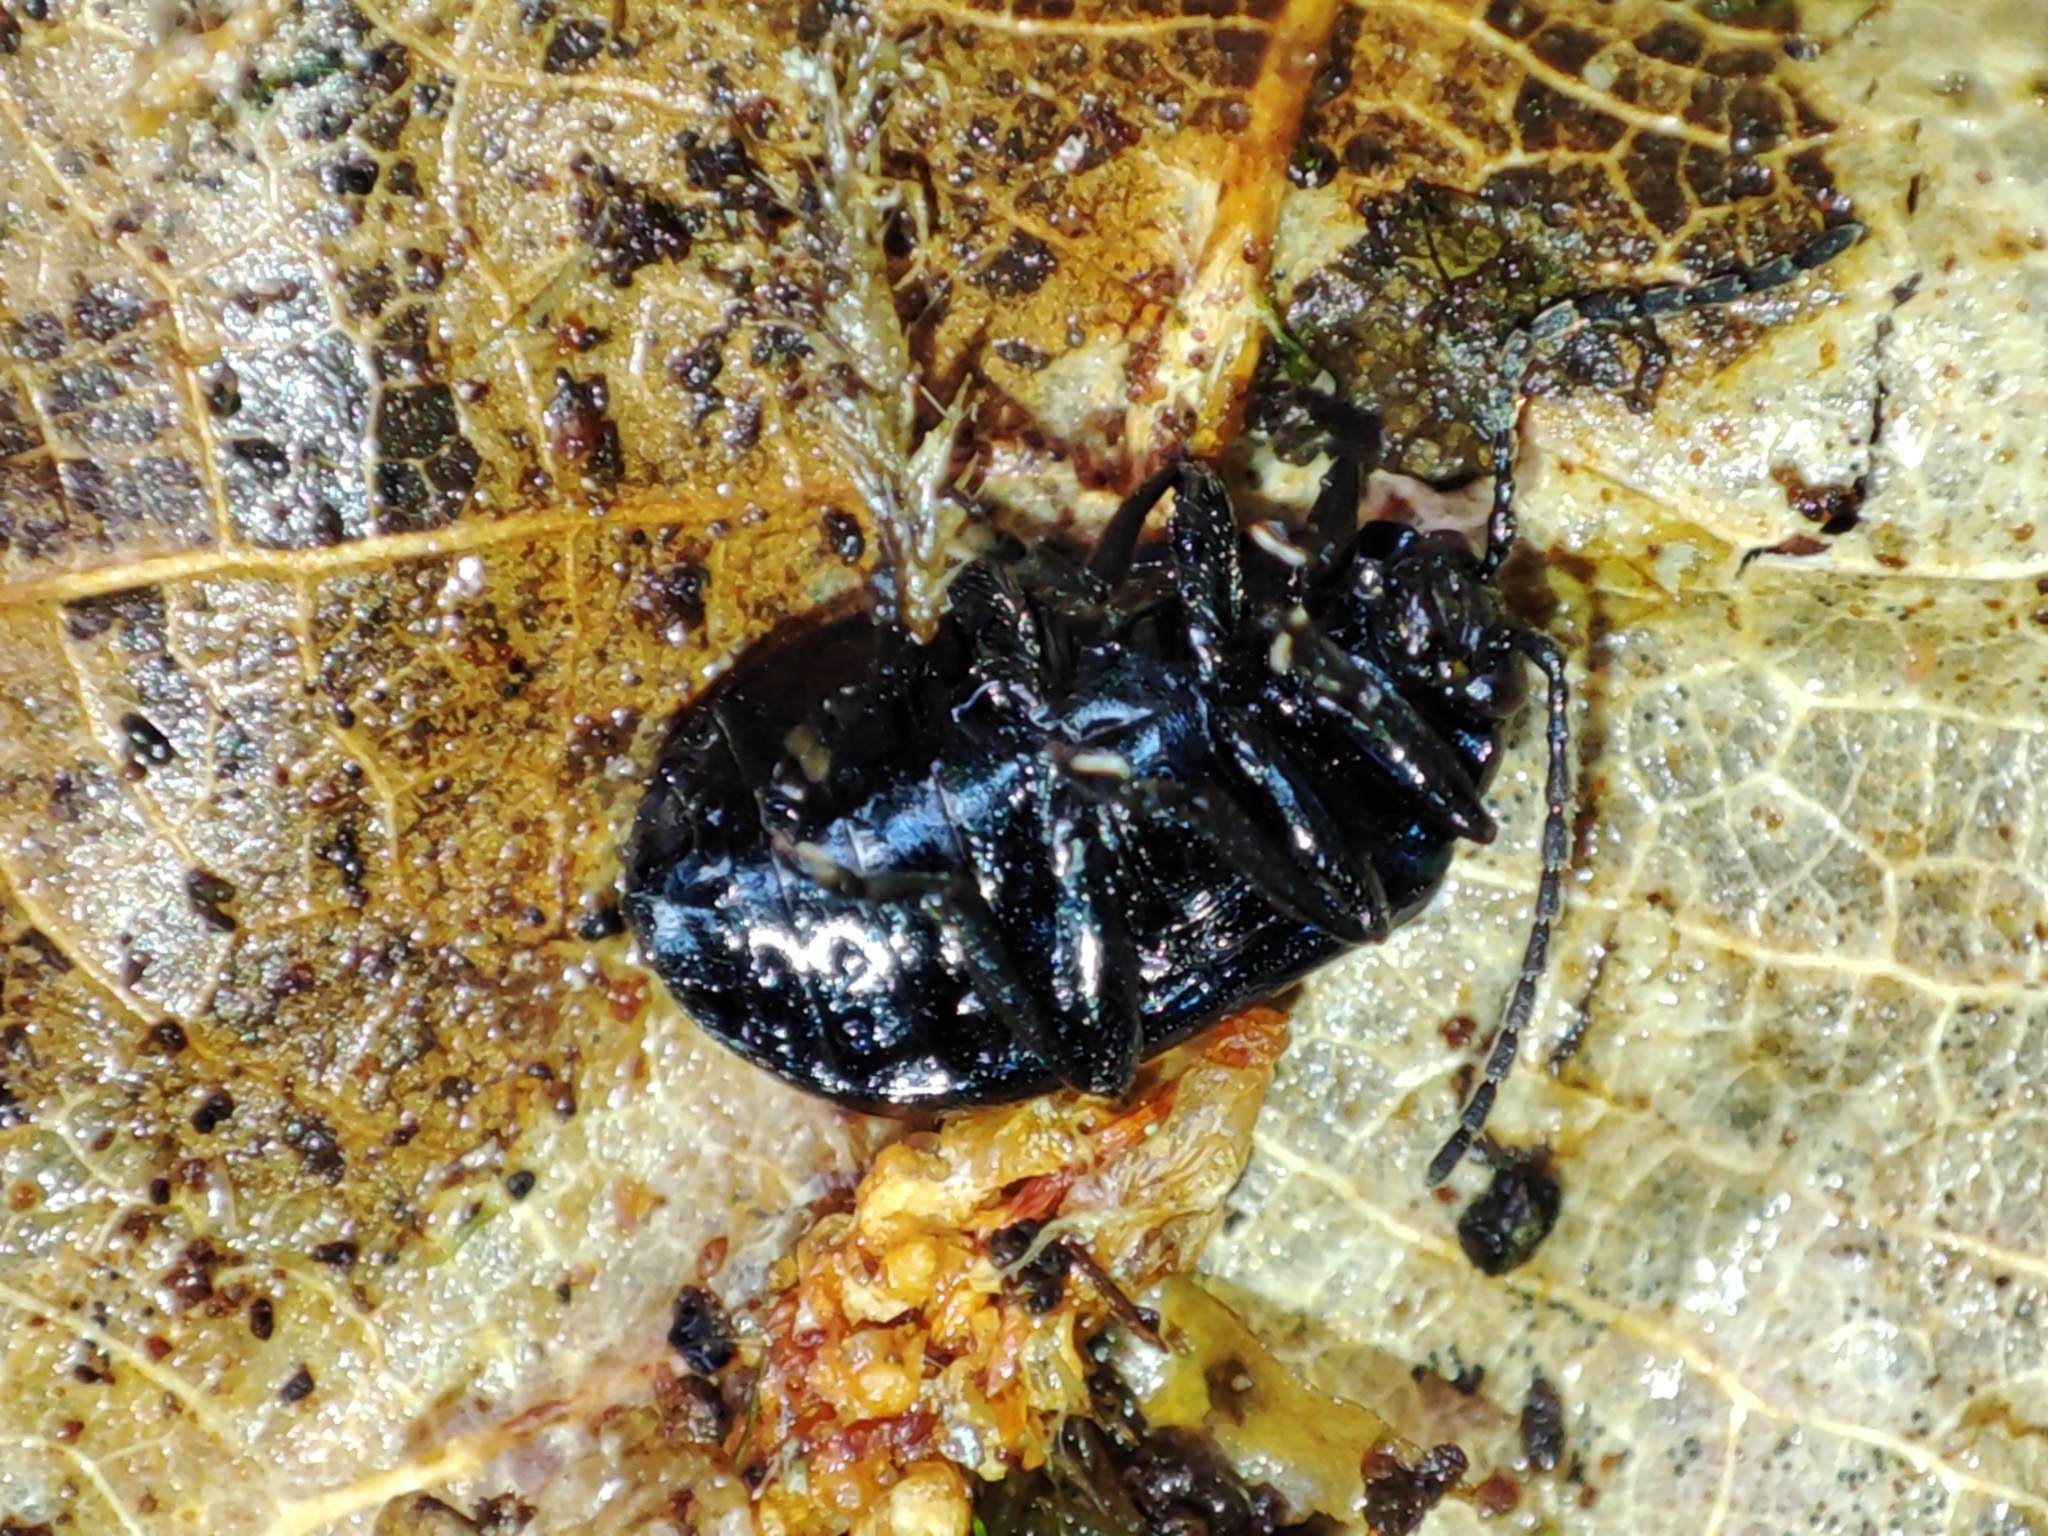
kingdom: Animalia
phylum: Arthropoda
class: Insecta
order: Coleoptera
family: Chrysomelidae
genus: Agelastica
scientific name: Agelastica alni
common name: Alder leaf beetle
